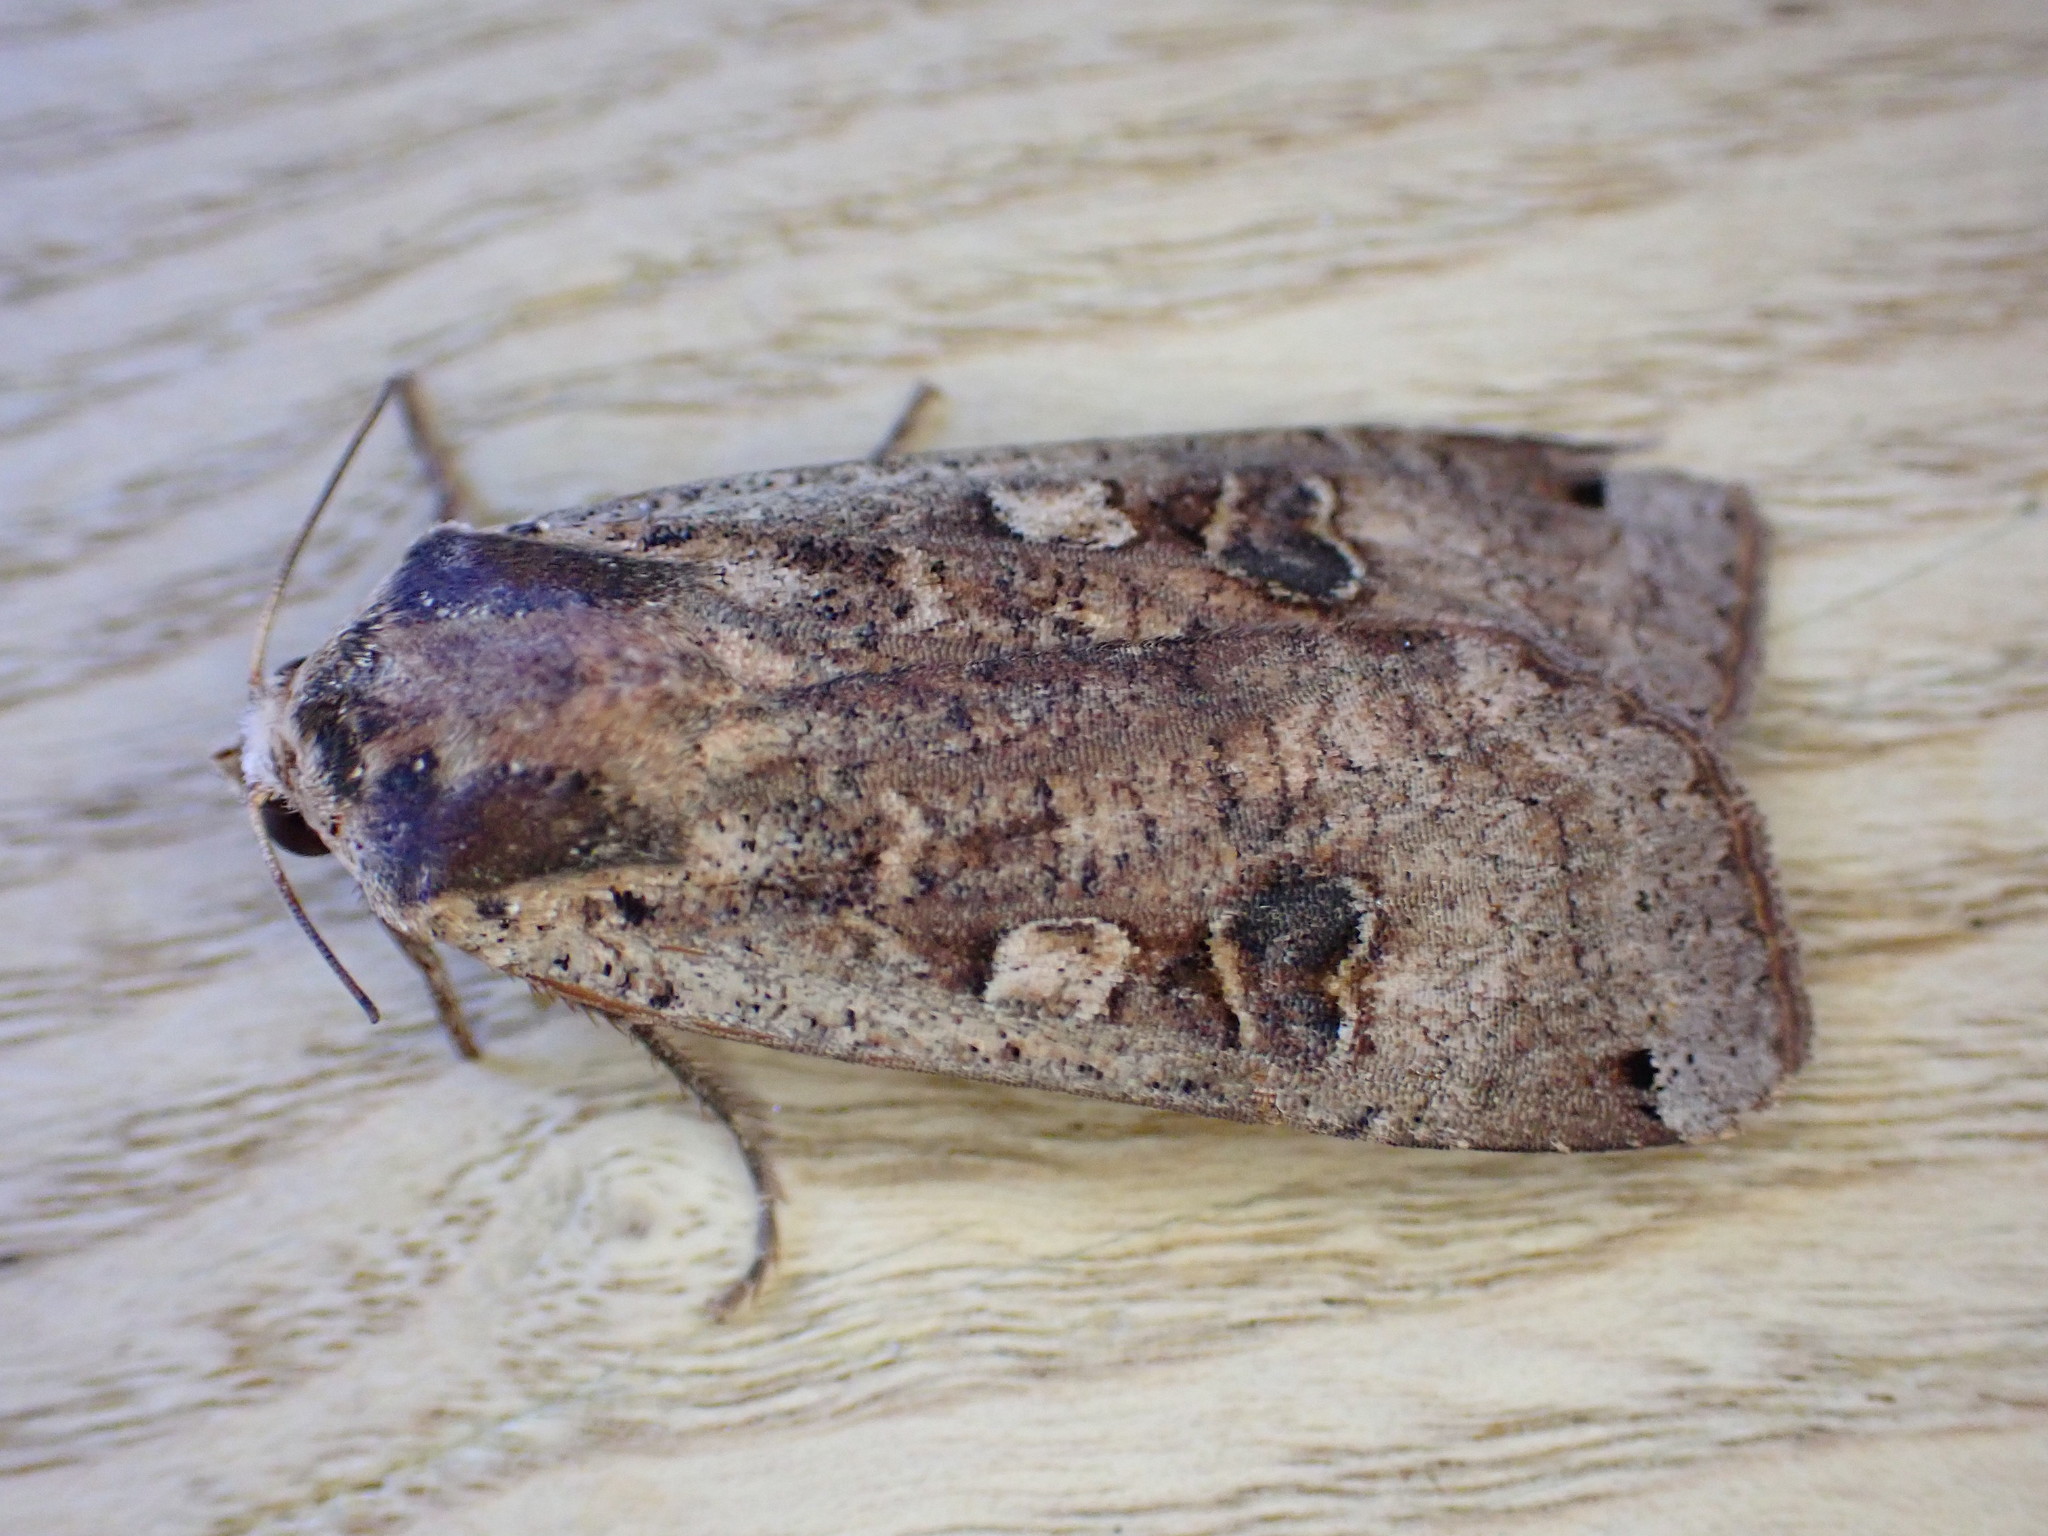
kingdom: Animalia
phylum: Arthropoda
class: Insecta
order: Lepidoptera
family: Noctuidae
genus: Noctua
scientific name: Noctua pronuba
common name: Large yellow underwing
